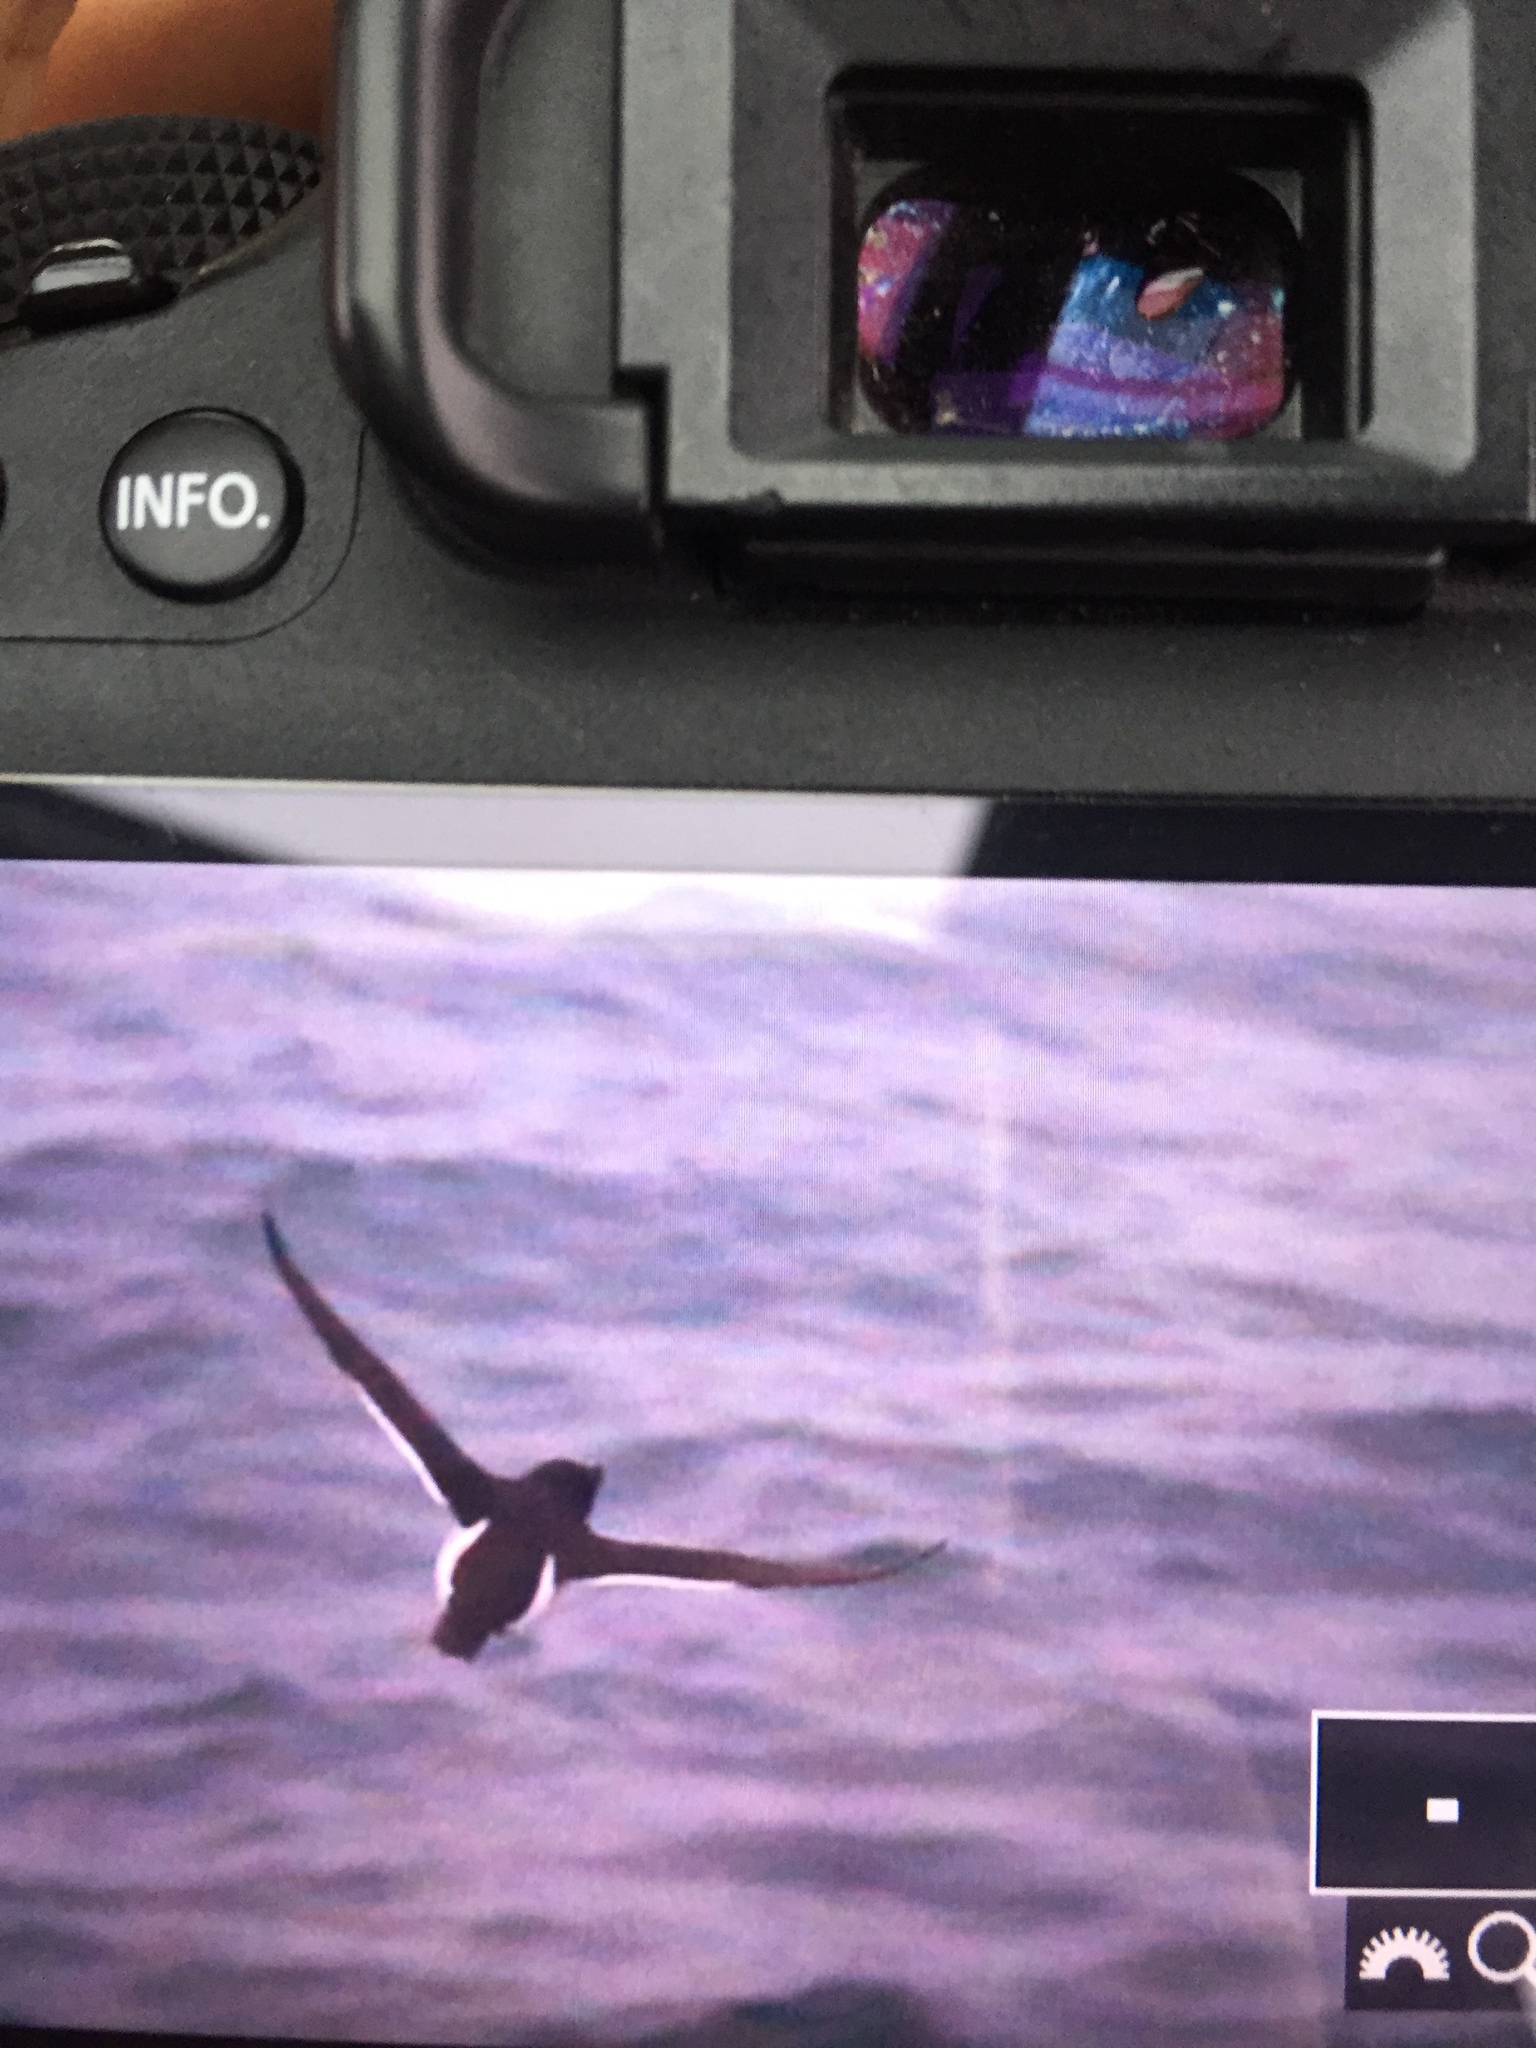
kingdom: Animalia
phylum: Chordata
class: Aves
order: Charadriiformes
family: Alcidae
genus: Alca
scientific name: Alca torda
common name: Razorbill
